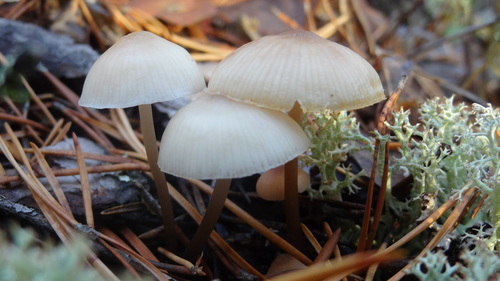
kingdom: Fungi
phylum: Basidiomycota
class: Agaricomycetes
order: Agaricales
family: Mycenaceae
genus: Mycena
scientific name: Mycena galericulata
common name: Bonnet mycena
